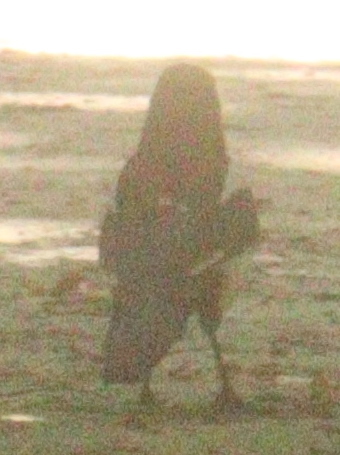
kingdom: Animalia
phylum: Chordata
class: Aves
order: Passeriformes
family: Corvidae
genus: Pica
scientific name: Pica pica
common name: Eurasian magpie
